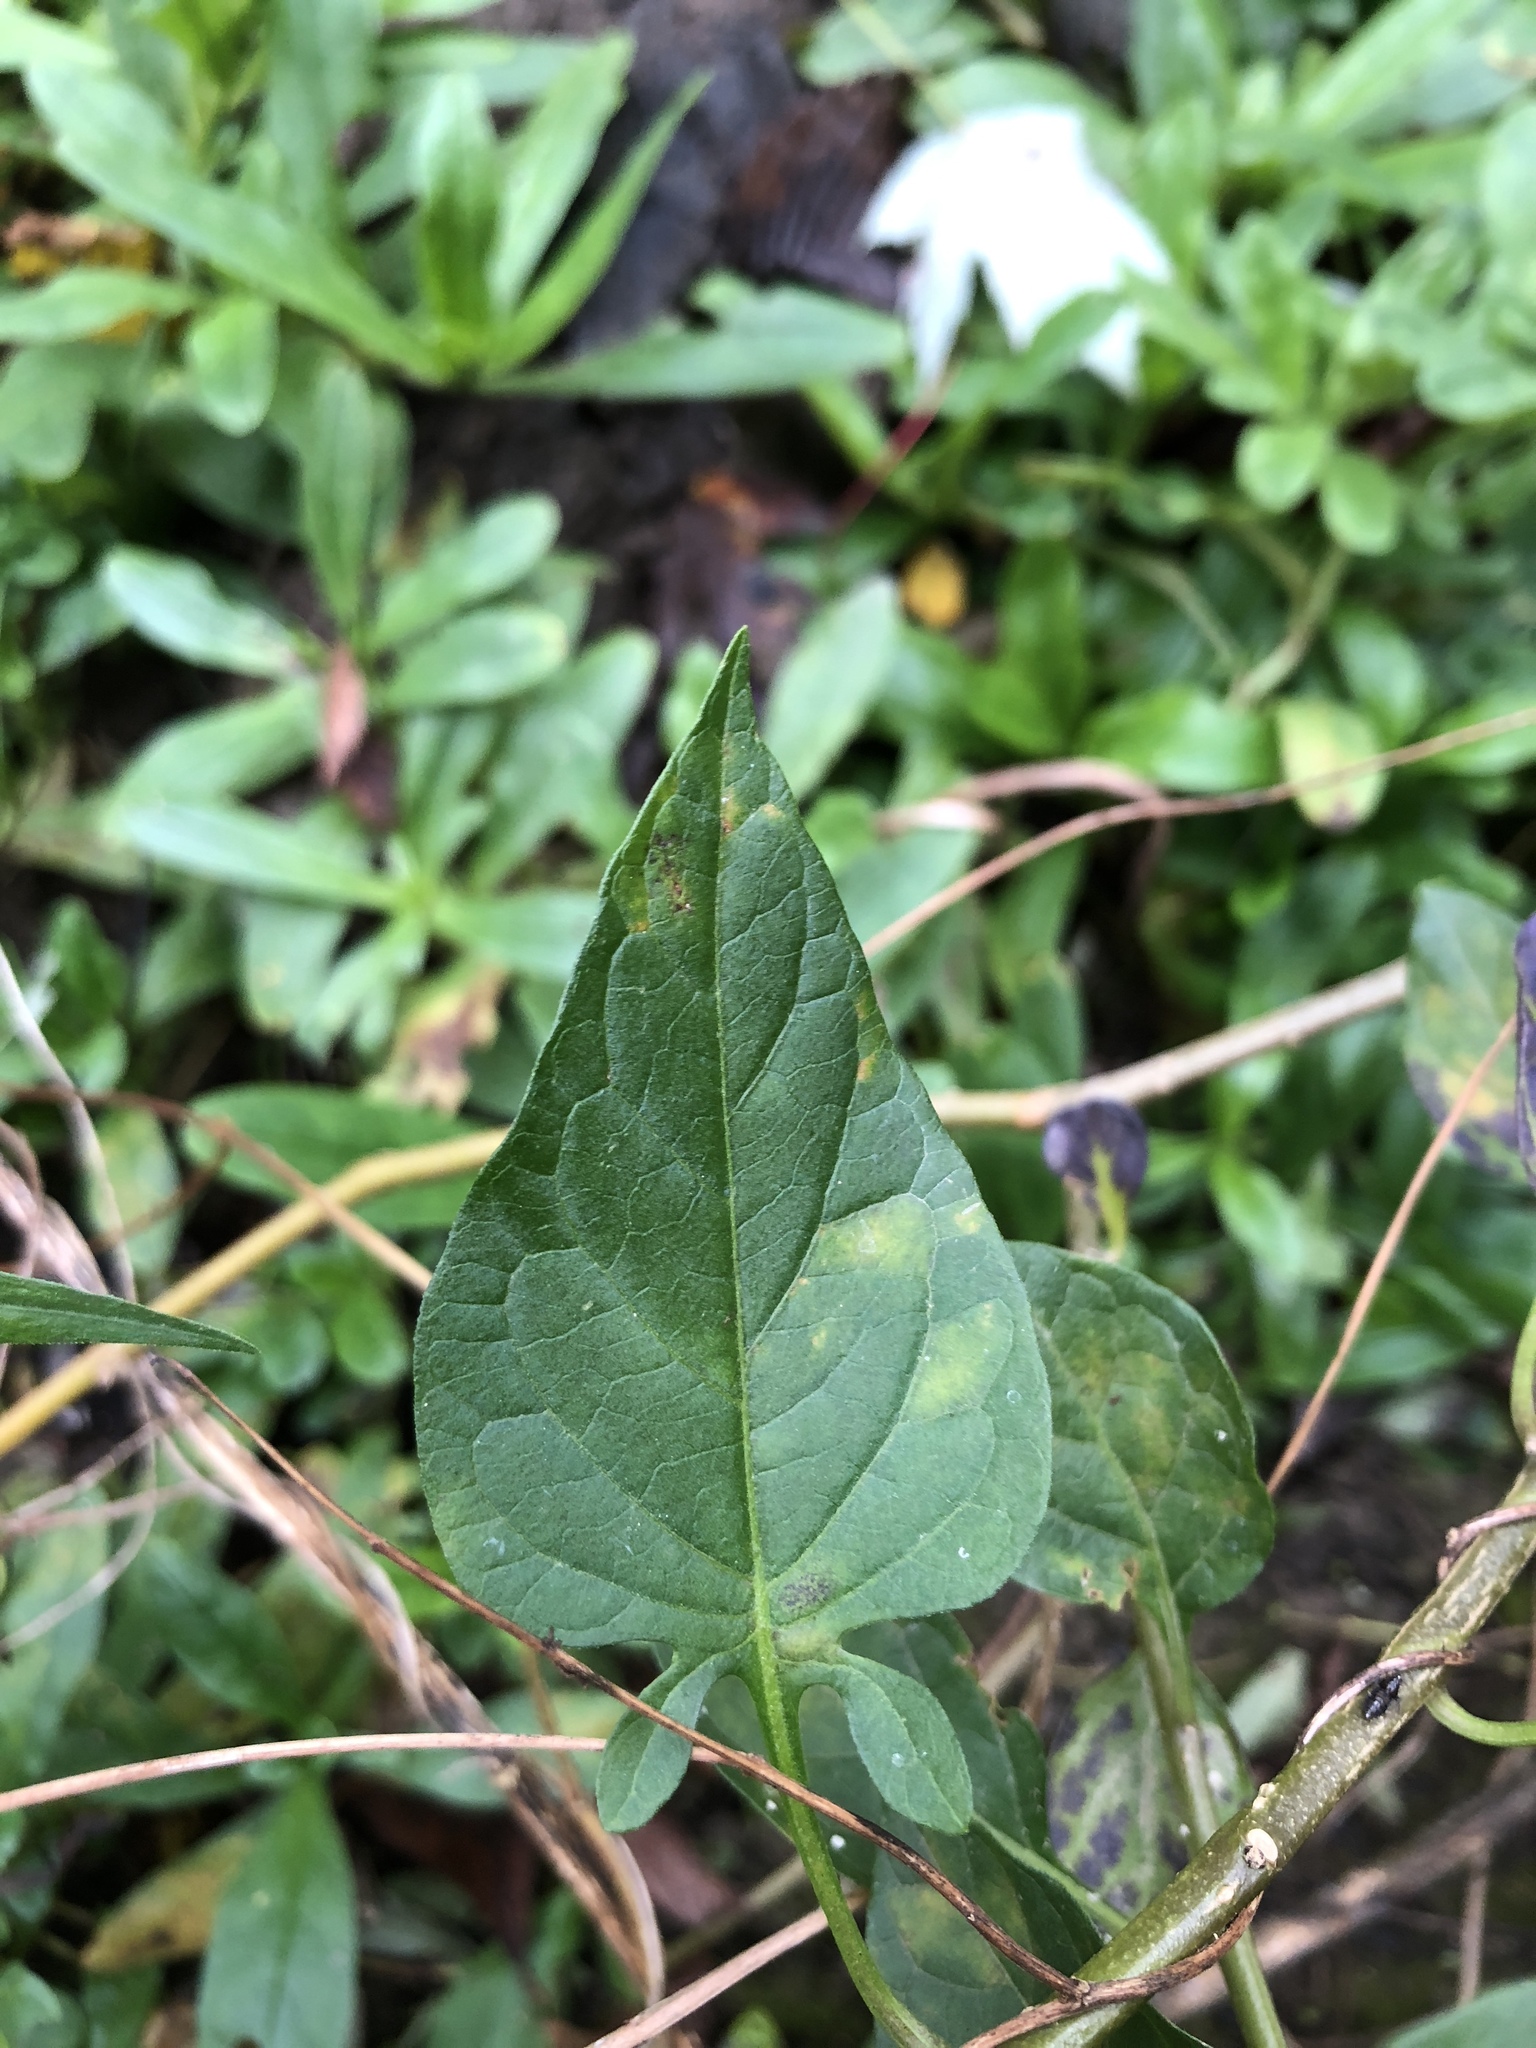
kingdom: Plantae
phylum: Tracheophyta
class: Magnoliopsida
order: Solanales
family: Solanaceae
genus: Solanum
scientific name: Solanum dulcamara
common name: Climbing nightshade
